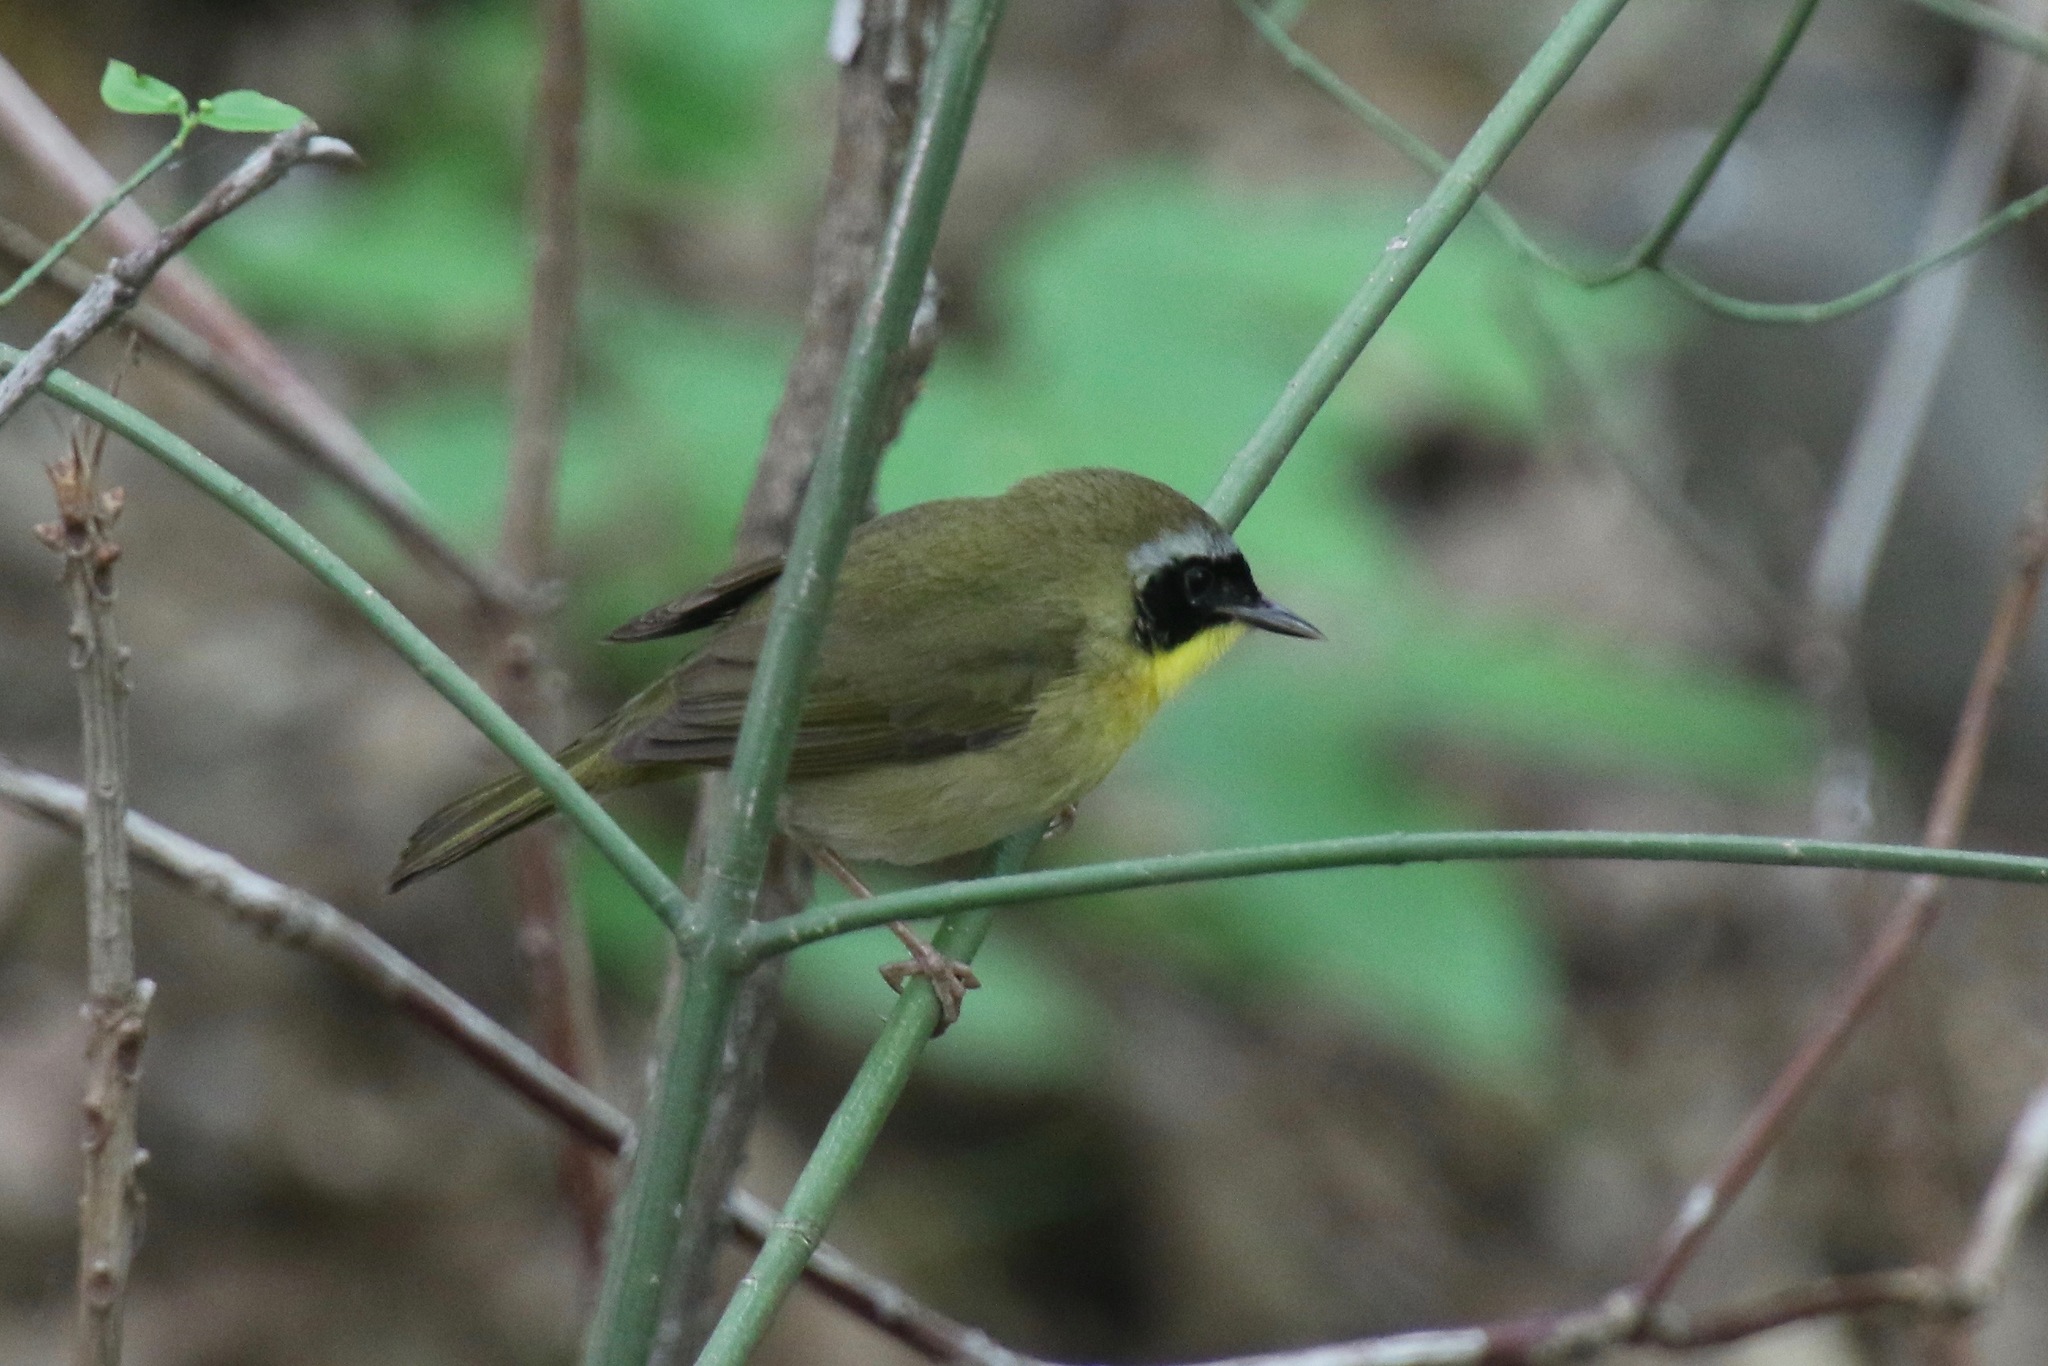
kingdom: Animalia
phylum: Chordata
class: Aves
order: Passeriformes
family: Parulidae
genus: Geothlypis
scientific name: Geothlypis trichas
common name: Common yellowthroat
